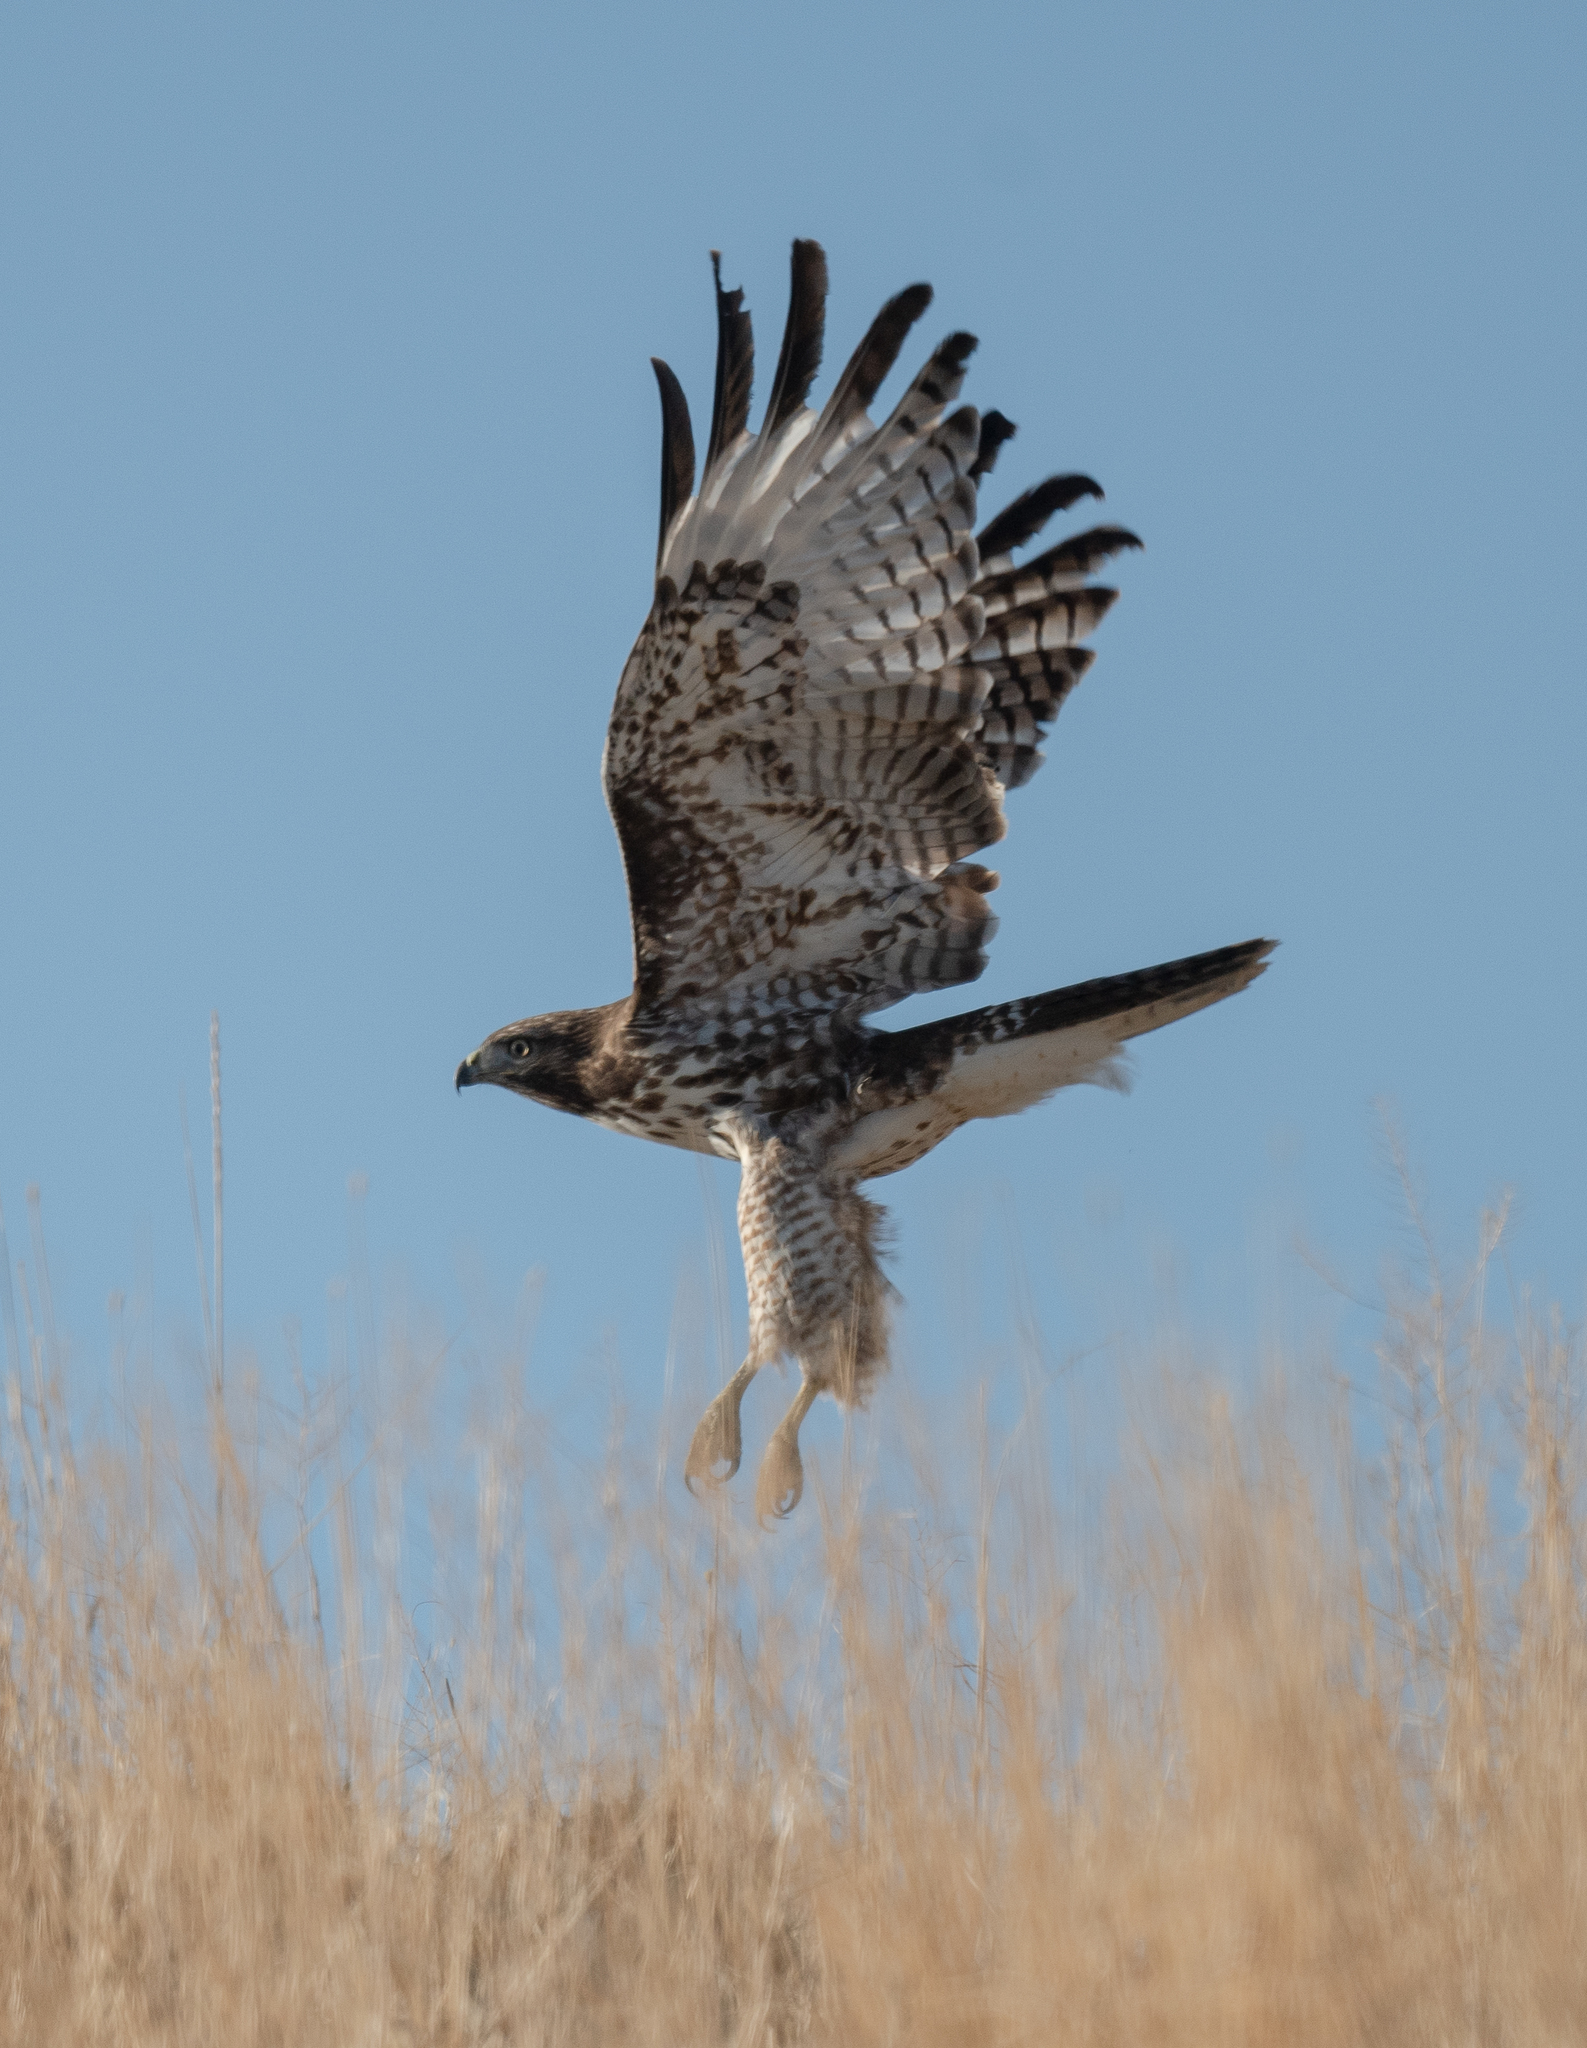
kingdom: Animalia
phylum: Chordata
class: Aves
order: Accipitriformes
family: Accipitridae
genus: Buteo
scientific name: Buteo jamaicensis
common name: Red-tailed hawk
